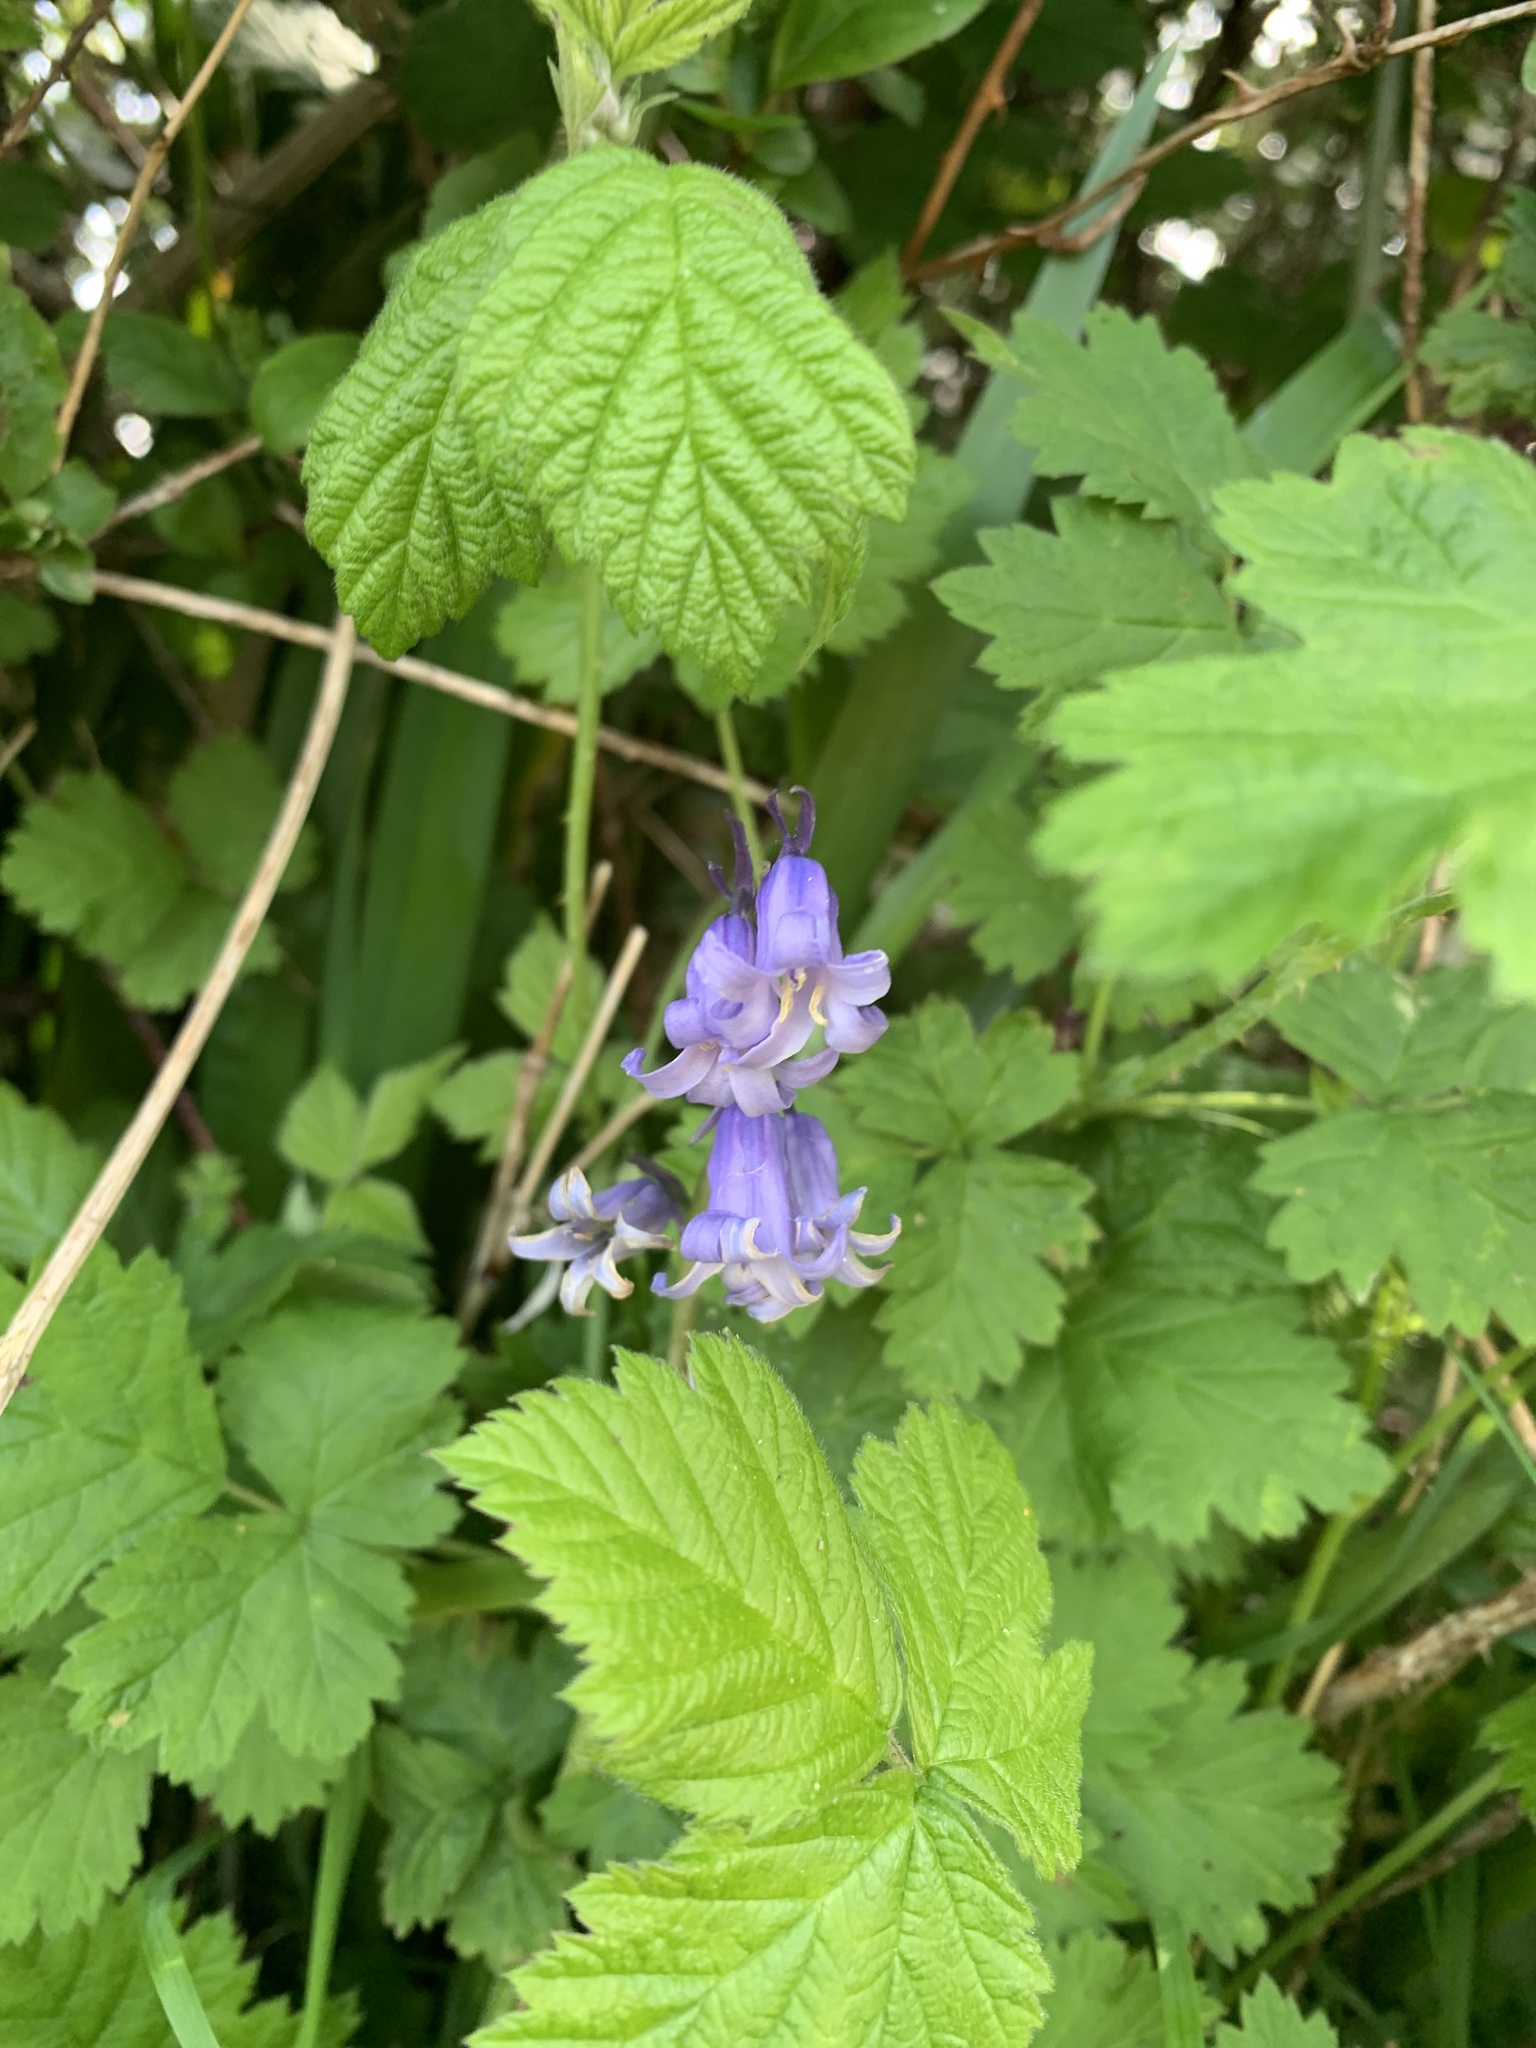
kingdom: Plantae
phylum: Tracheophyta
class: Liliopsida
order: Asparagales
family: Asparagaceae
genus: Hyacinthoides
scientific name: Hyacinthoides non-scripta
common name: Bluebell
